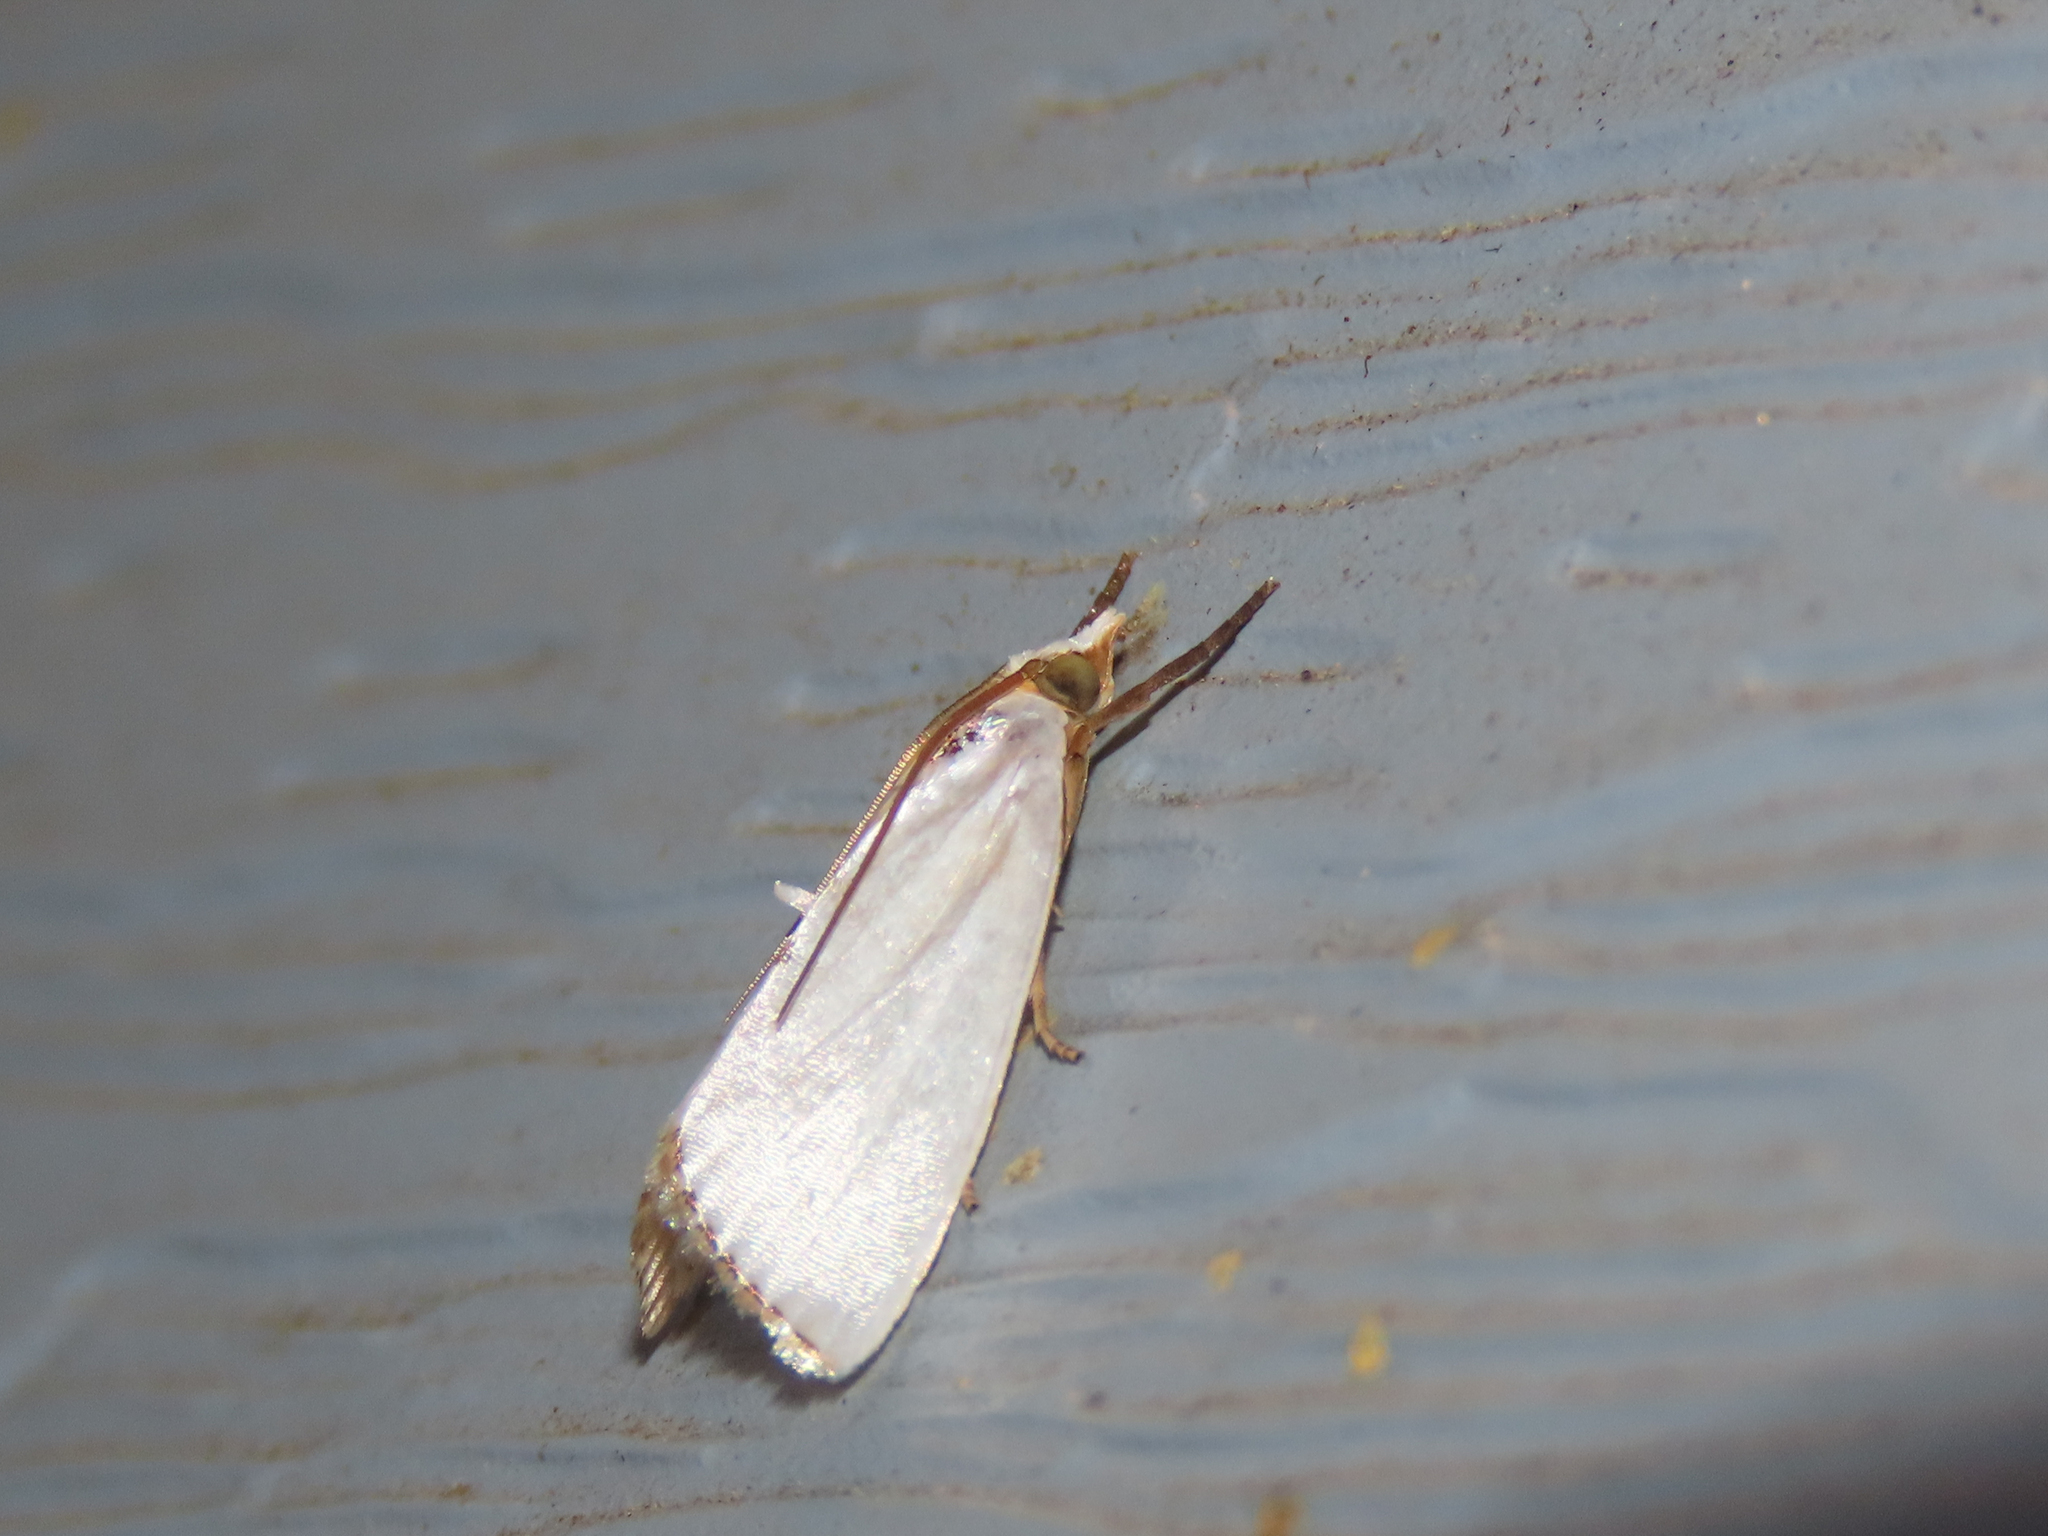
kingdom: Animalia
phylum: Arthropoda
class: Insecta
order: Lepidoptera
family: Crambidae
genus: Argyria
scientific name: Argyria nivalis
